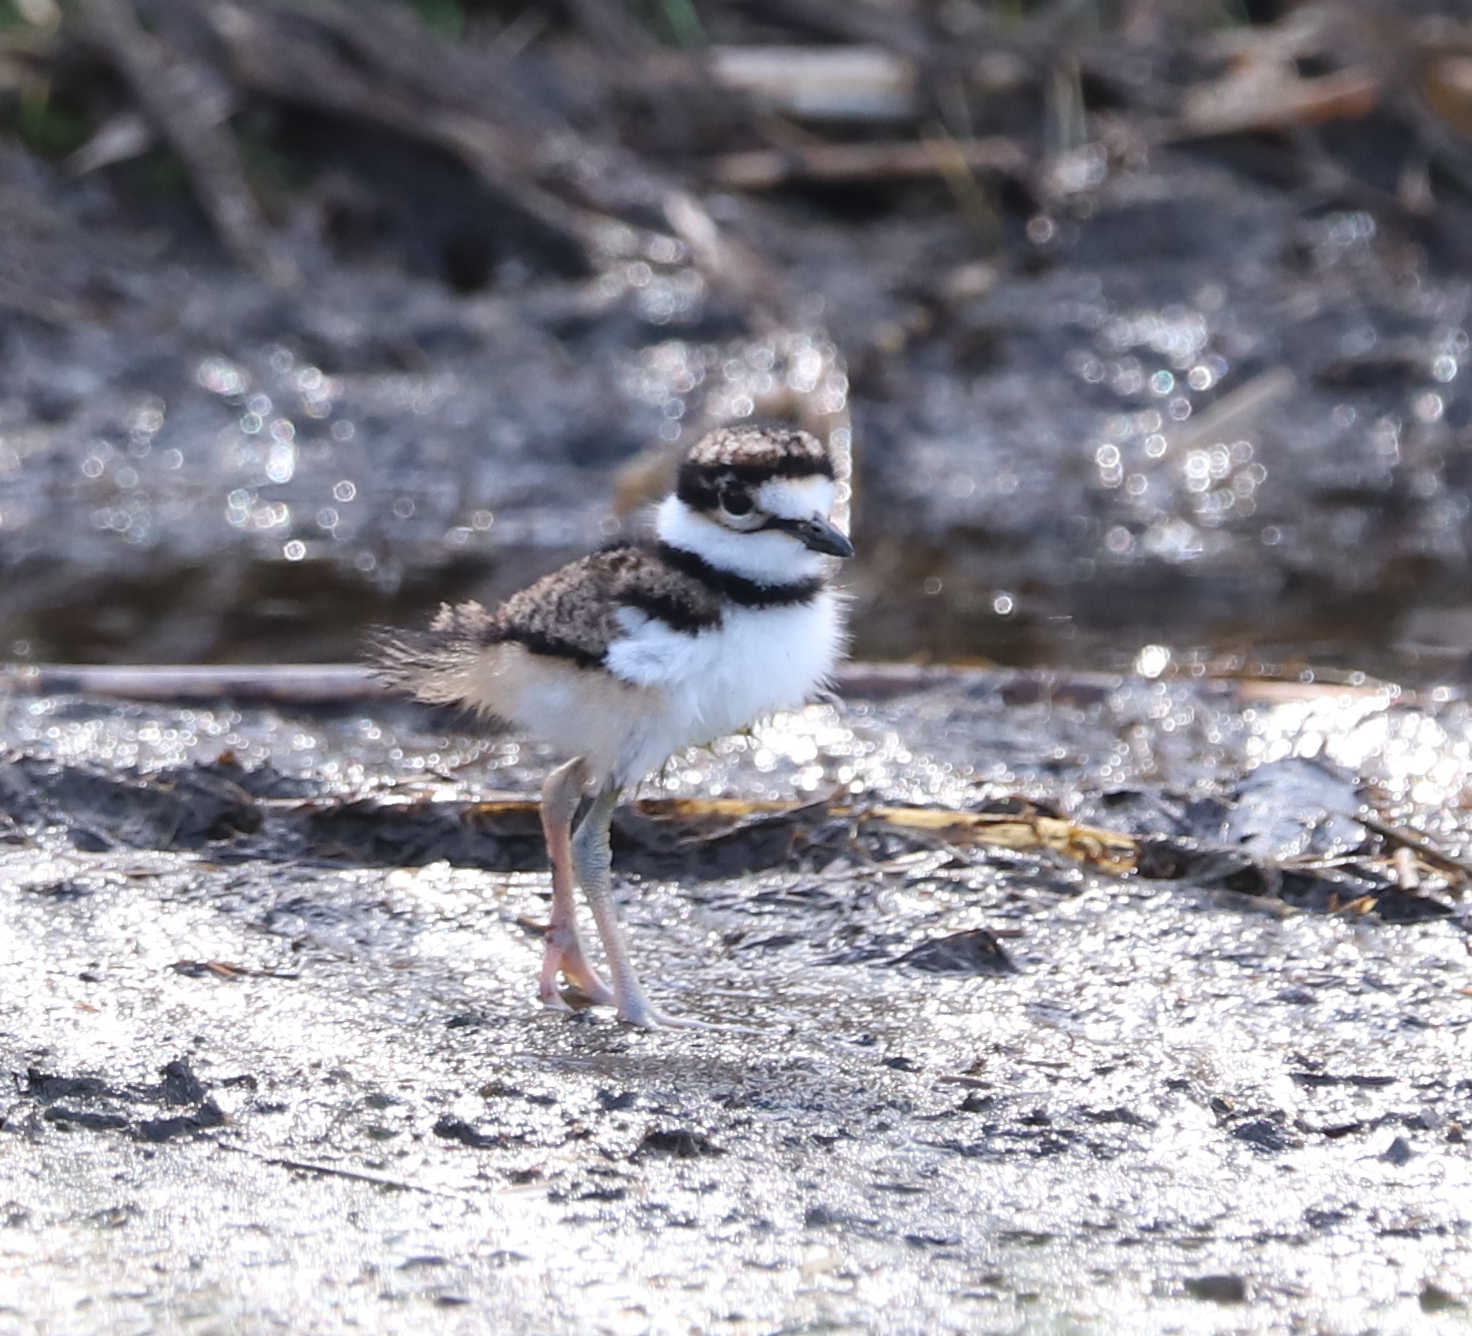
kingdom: Animalia
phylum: Chordata
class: Aves
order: Charadriiformes
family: Charadriidae
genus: Charadrius
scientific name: Charadrius vociferus
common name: Killdeer
